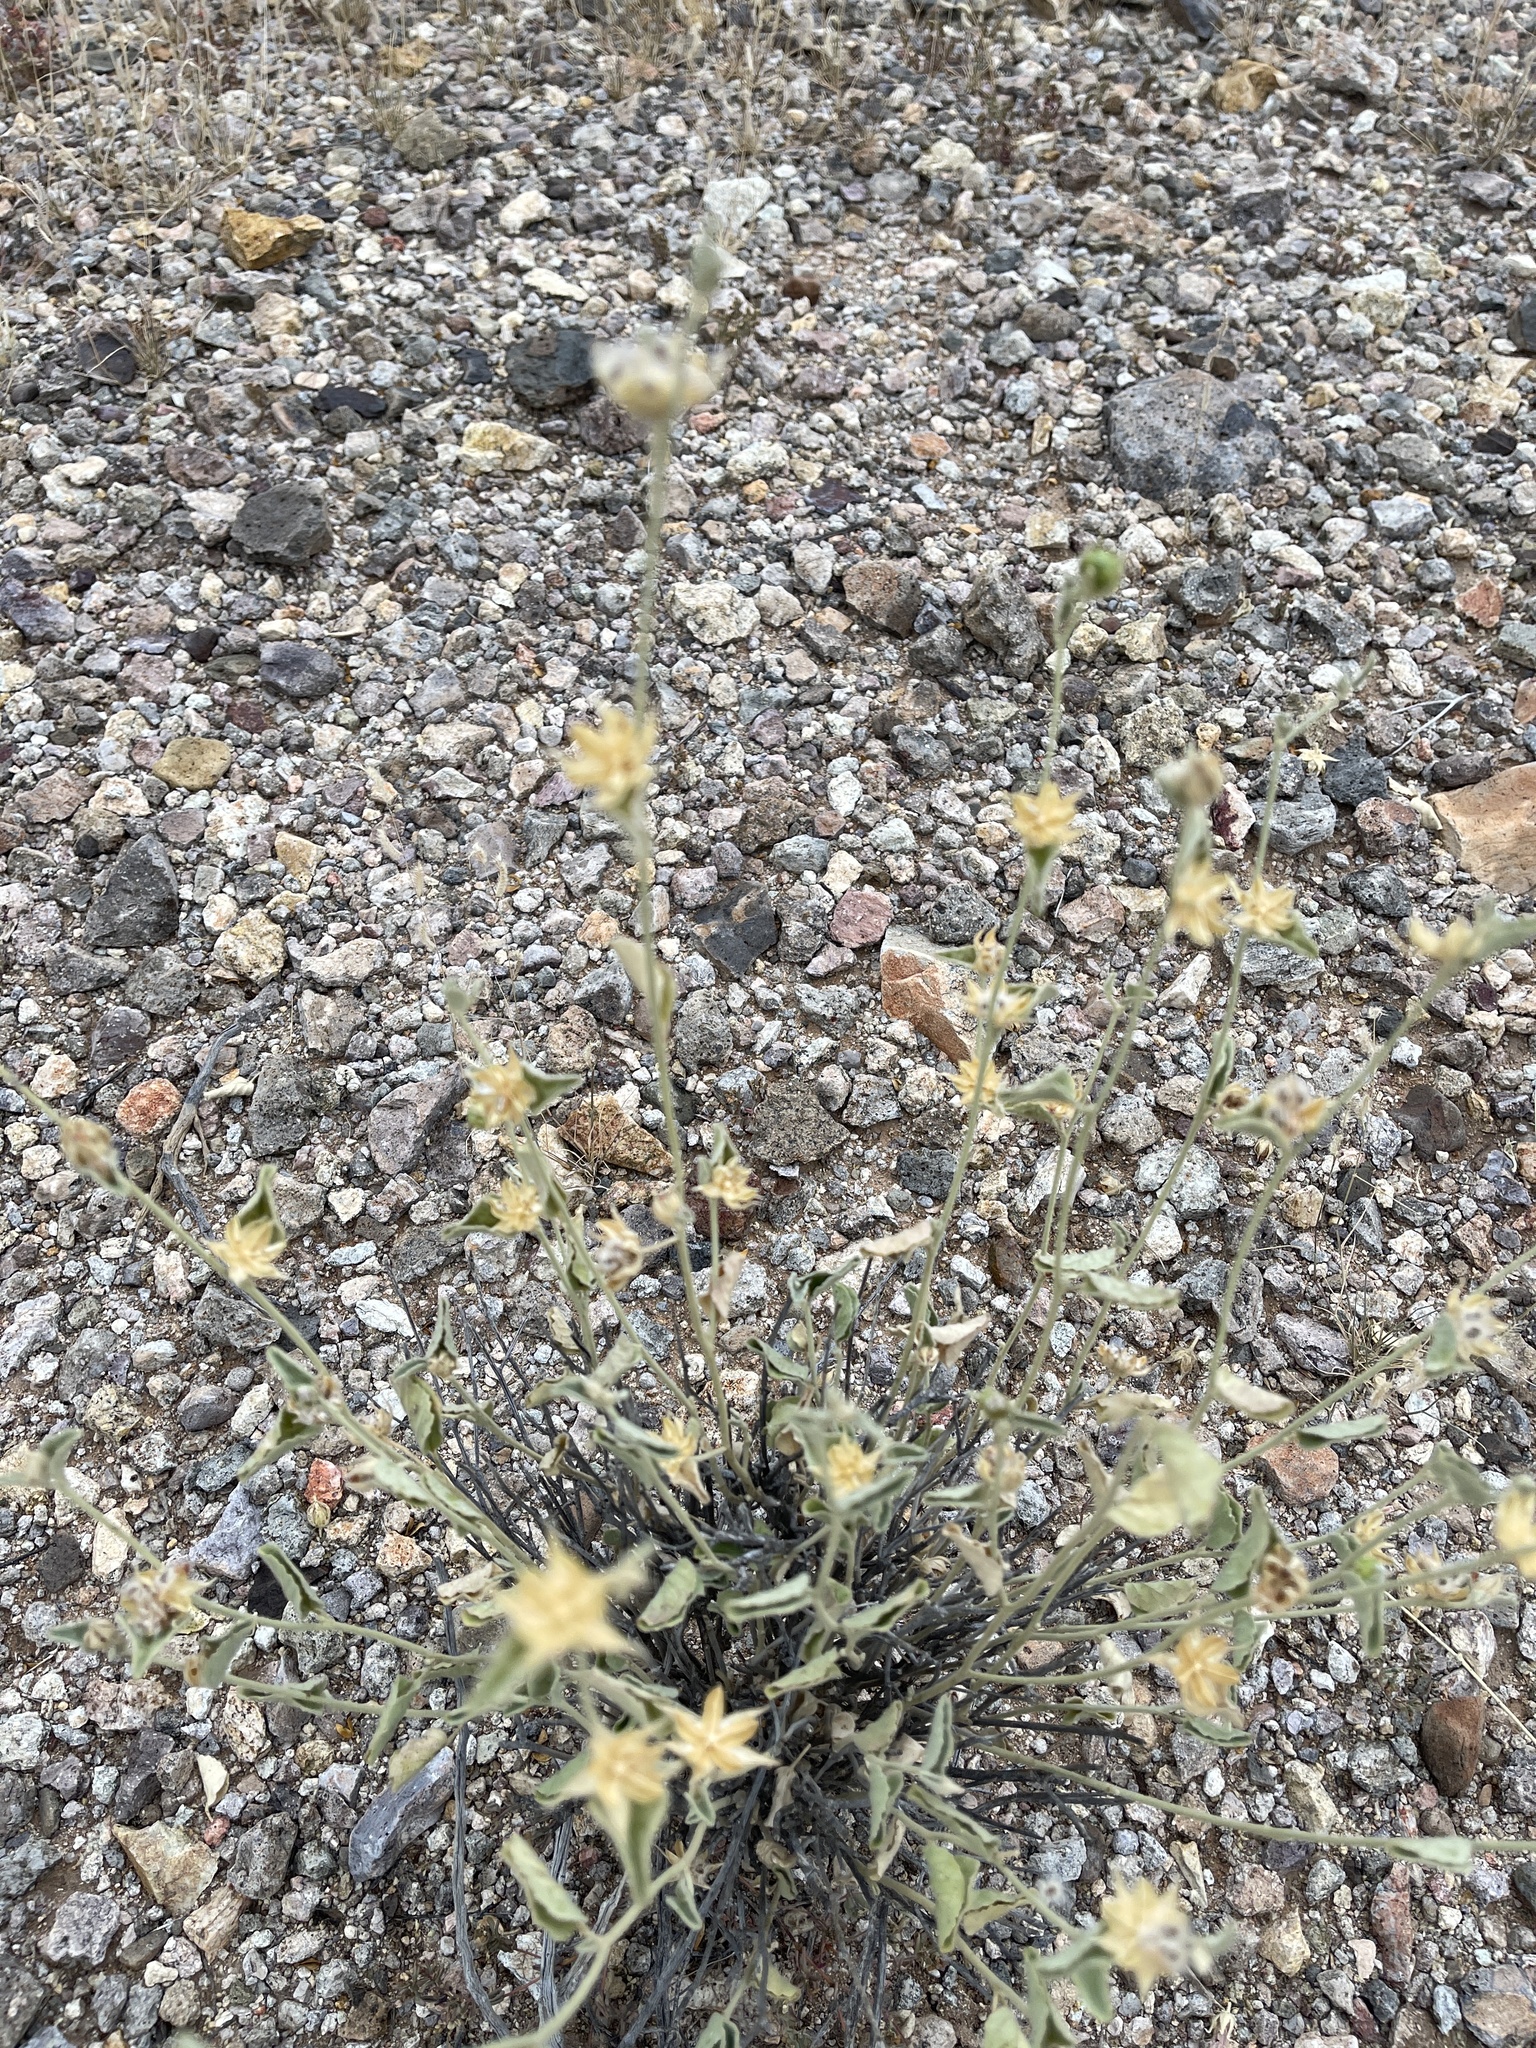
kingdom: Plantae
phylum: Tracheophyta
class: Magnoliopsida
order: Malvales
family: Malvaceae
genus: Hibiscus
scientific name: Hibiscus denudatus
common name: Paleface
